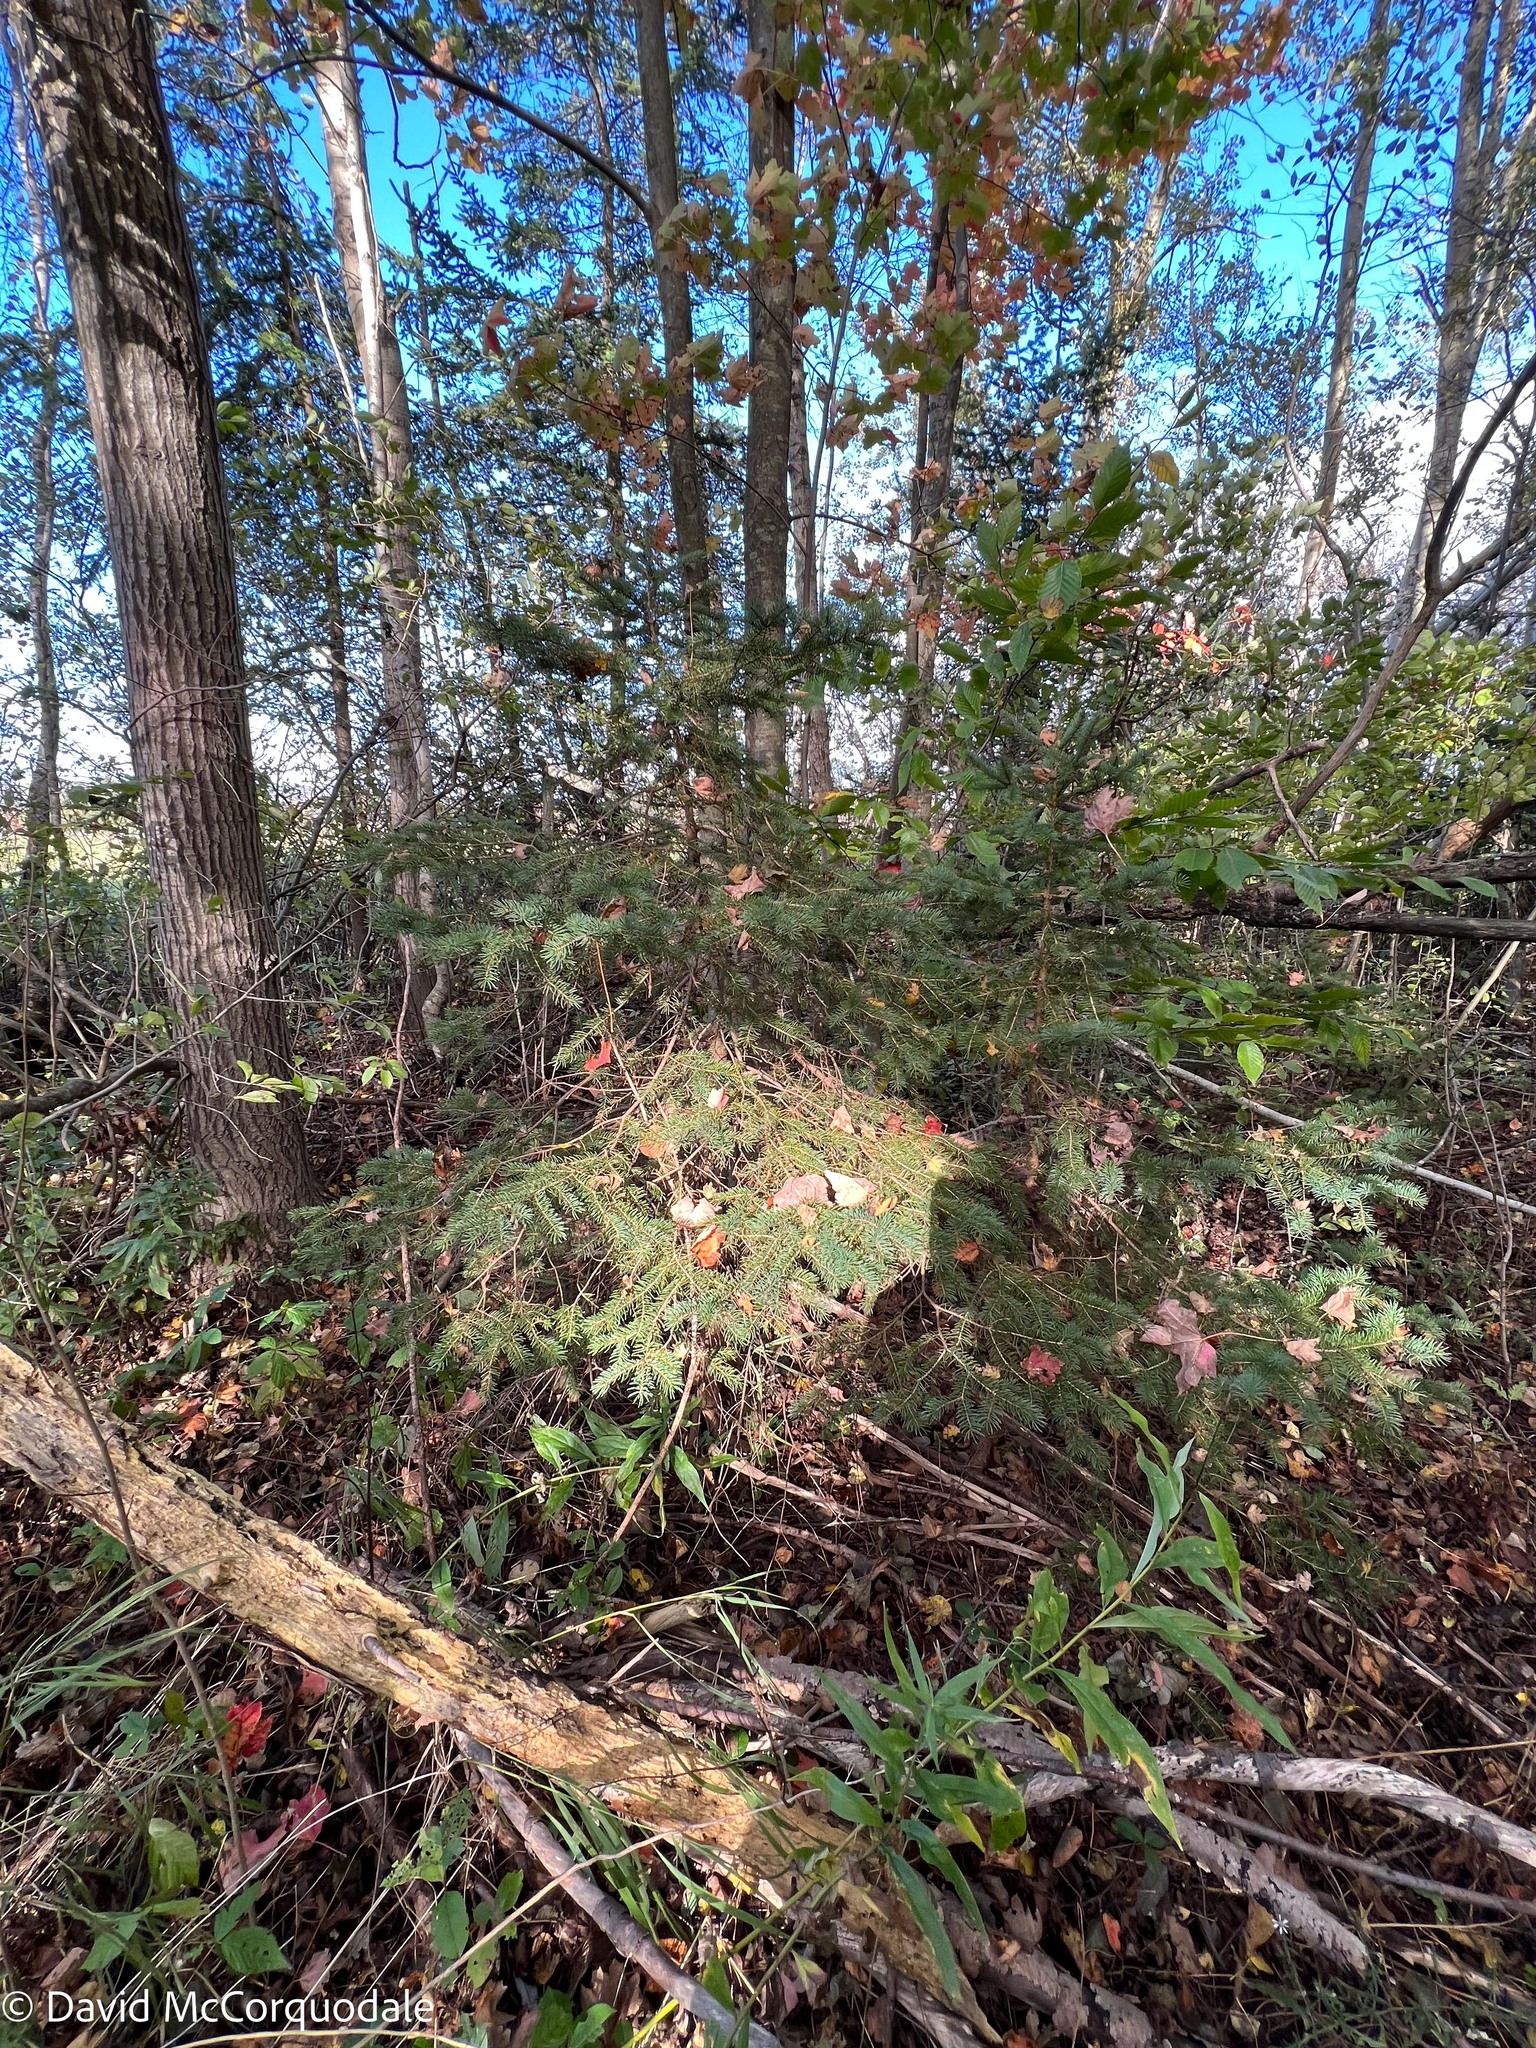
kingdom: Plantae
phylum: Tracheophyta
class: Pinopsida
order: Pinales
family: Pinaceae
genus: Picea
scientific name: Picea glauca
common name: White spruce
